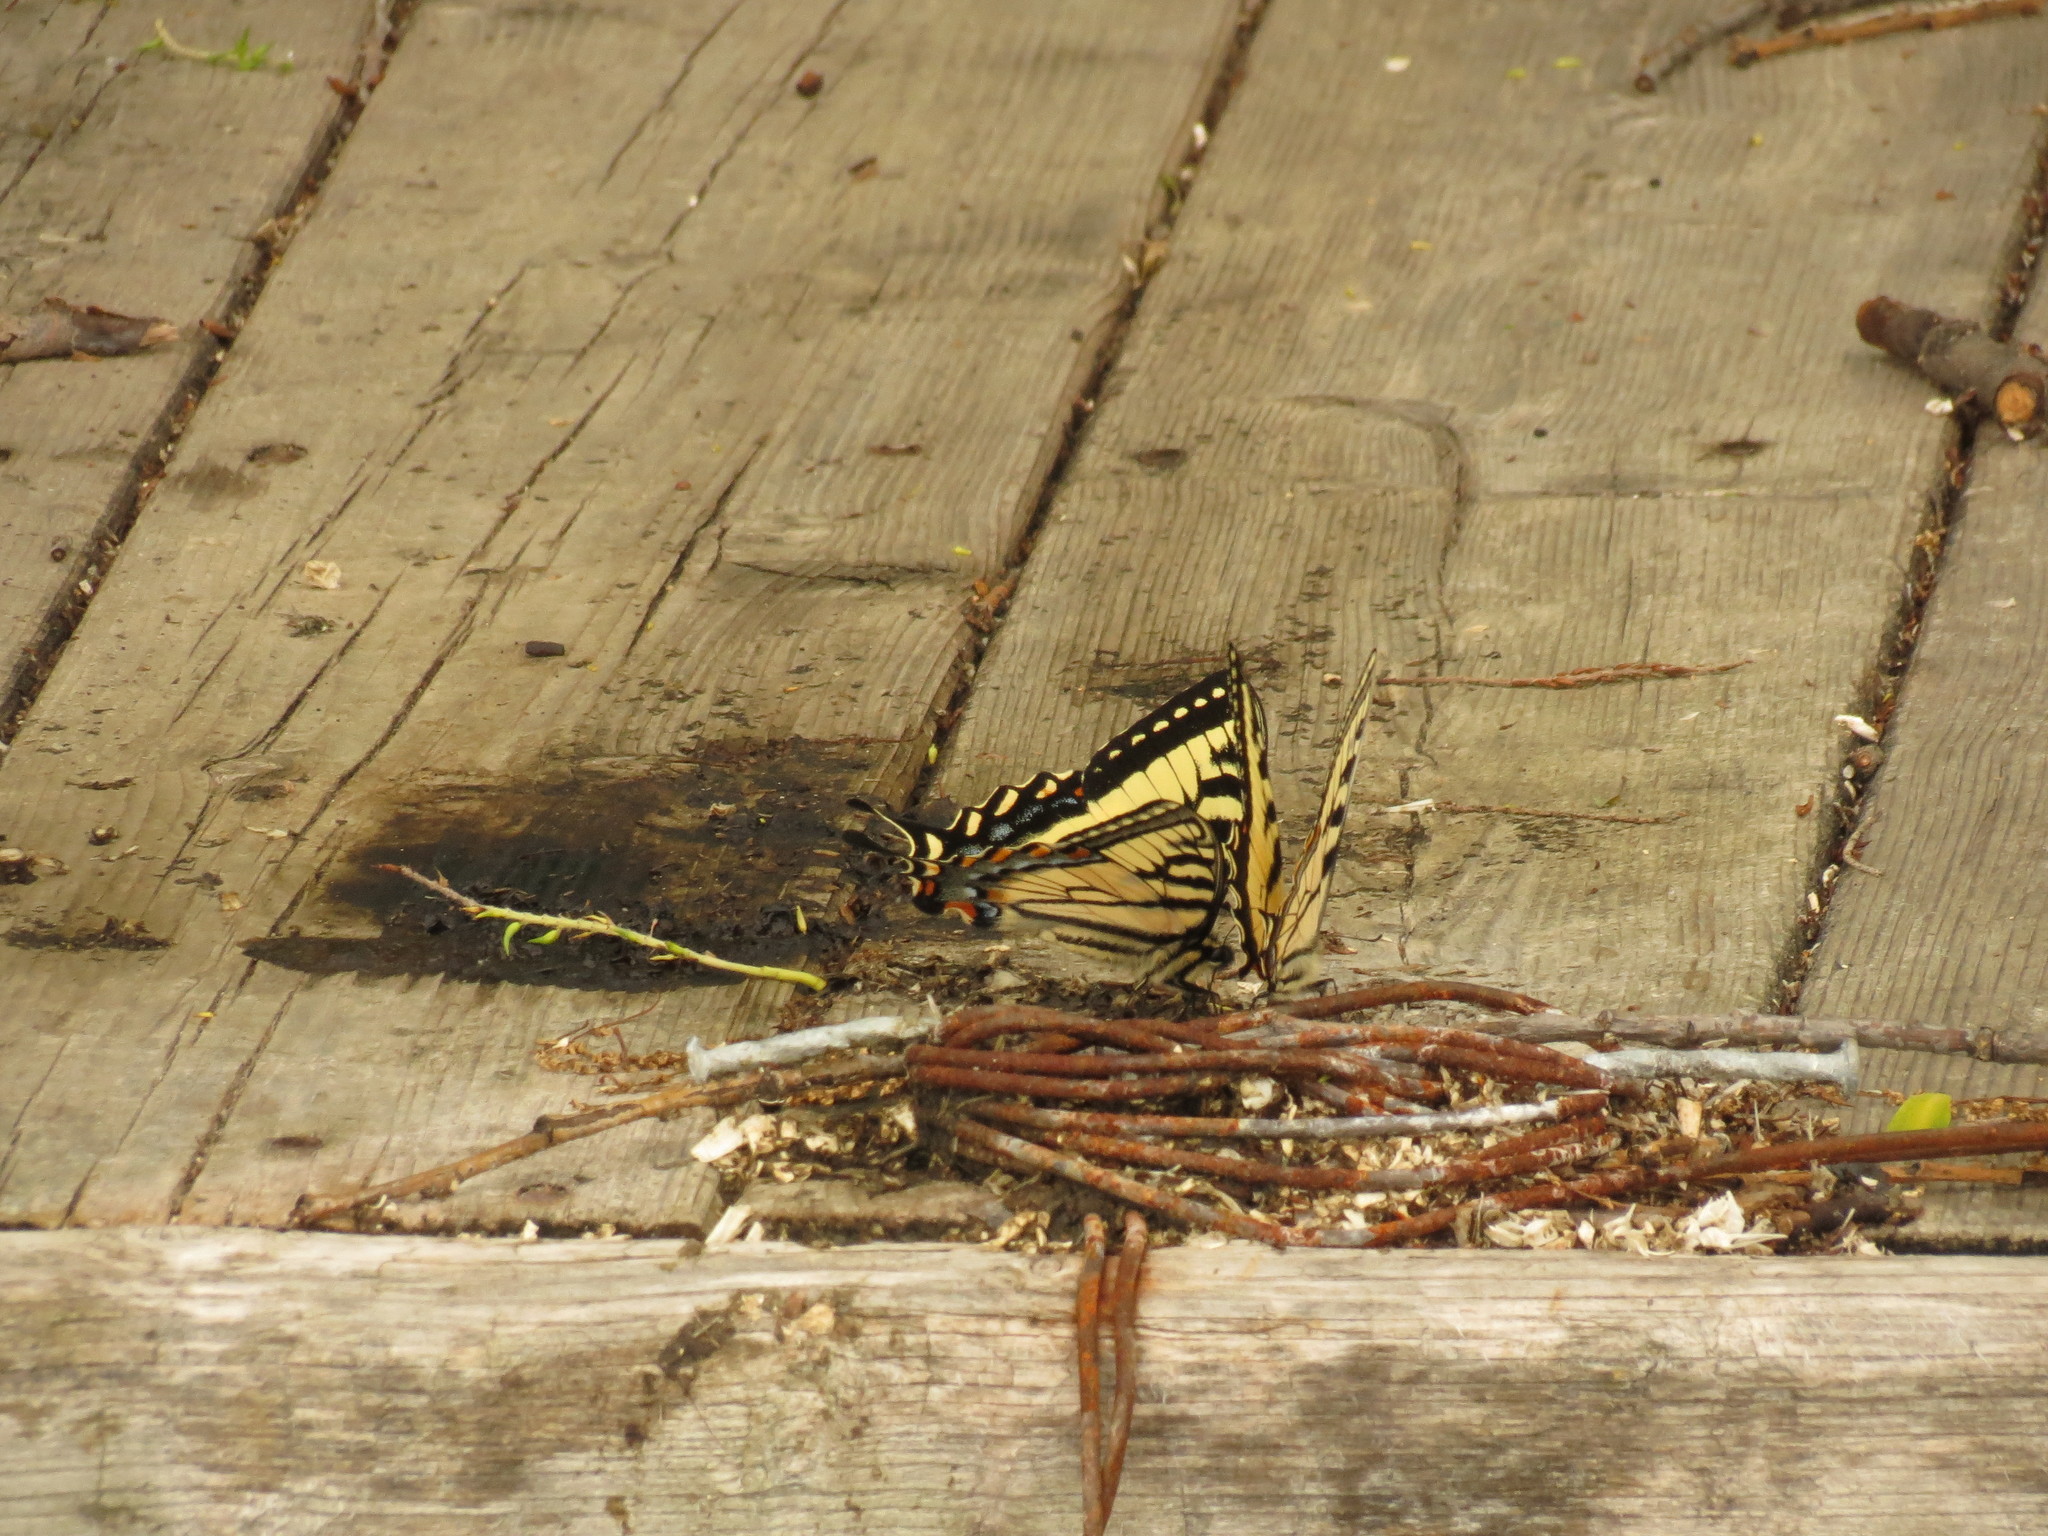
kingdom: Animalia
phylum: Arthropoda
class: Insecta
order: Lepidoptera
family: Papilionidae
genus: Papilio
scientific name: Papilio canadensis
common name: Canadian tiger swallowtail
